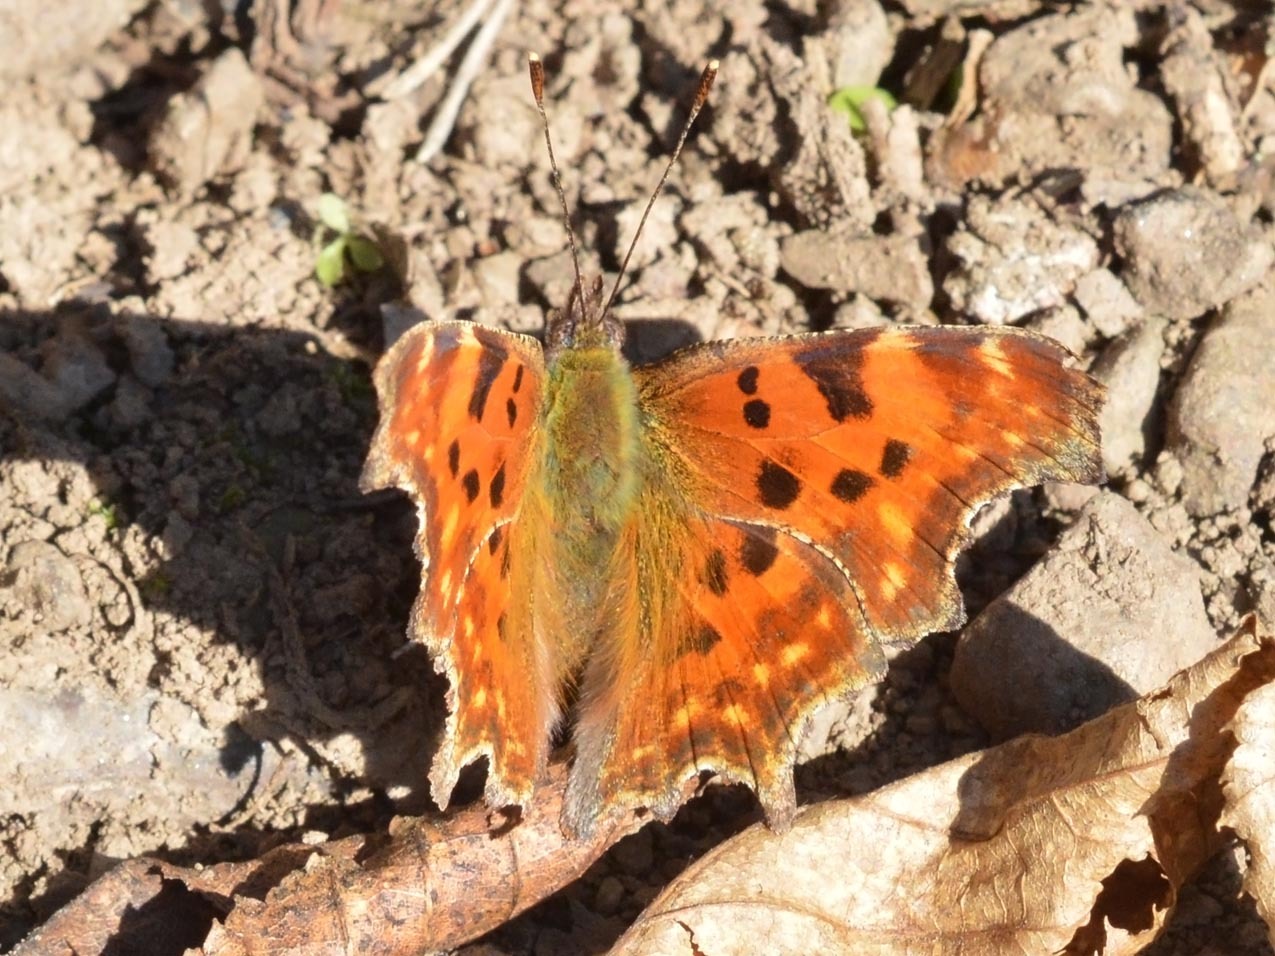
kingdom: Animalia
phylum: Arthropoda
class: Insecta
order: Lepidoptera
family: Nymphalidae
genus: Polygonia
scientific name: Polygonia c-album
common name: Comma
